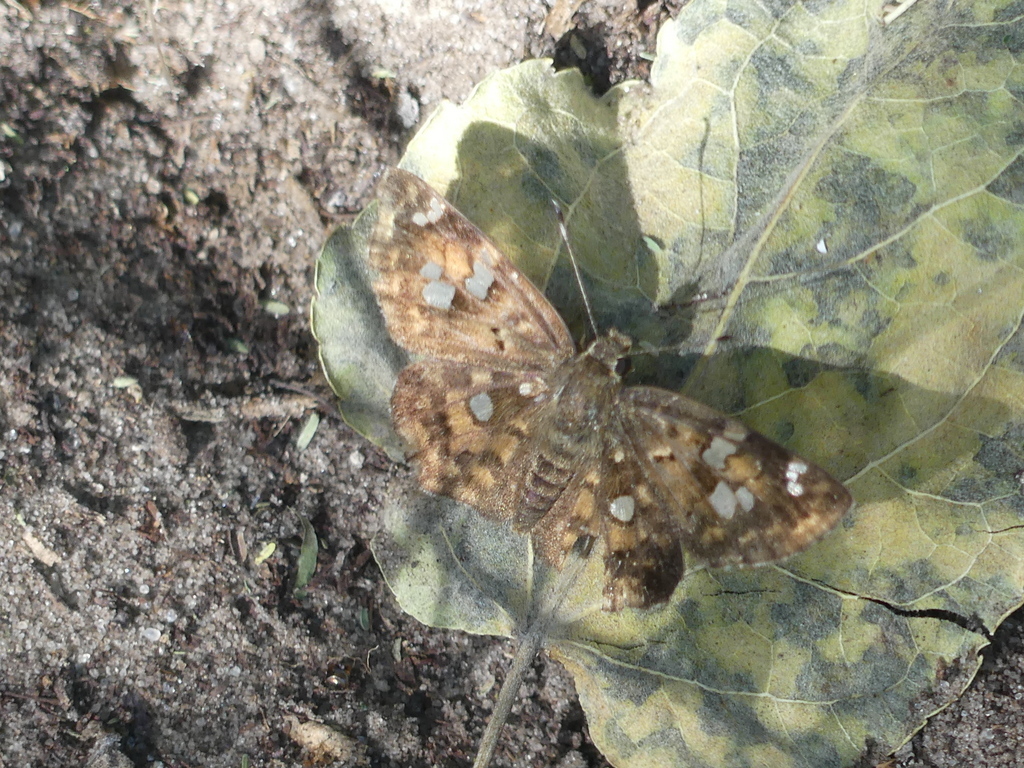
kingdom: Animalia
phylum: Arthropoda
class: Insecta
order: Lepidoptera
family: Hesperiidae
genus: Sarangesa
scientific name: Sarangesa motozi
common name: Forest elfin
